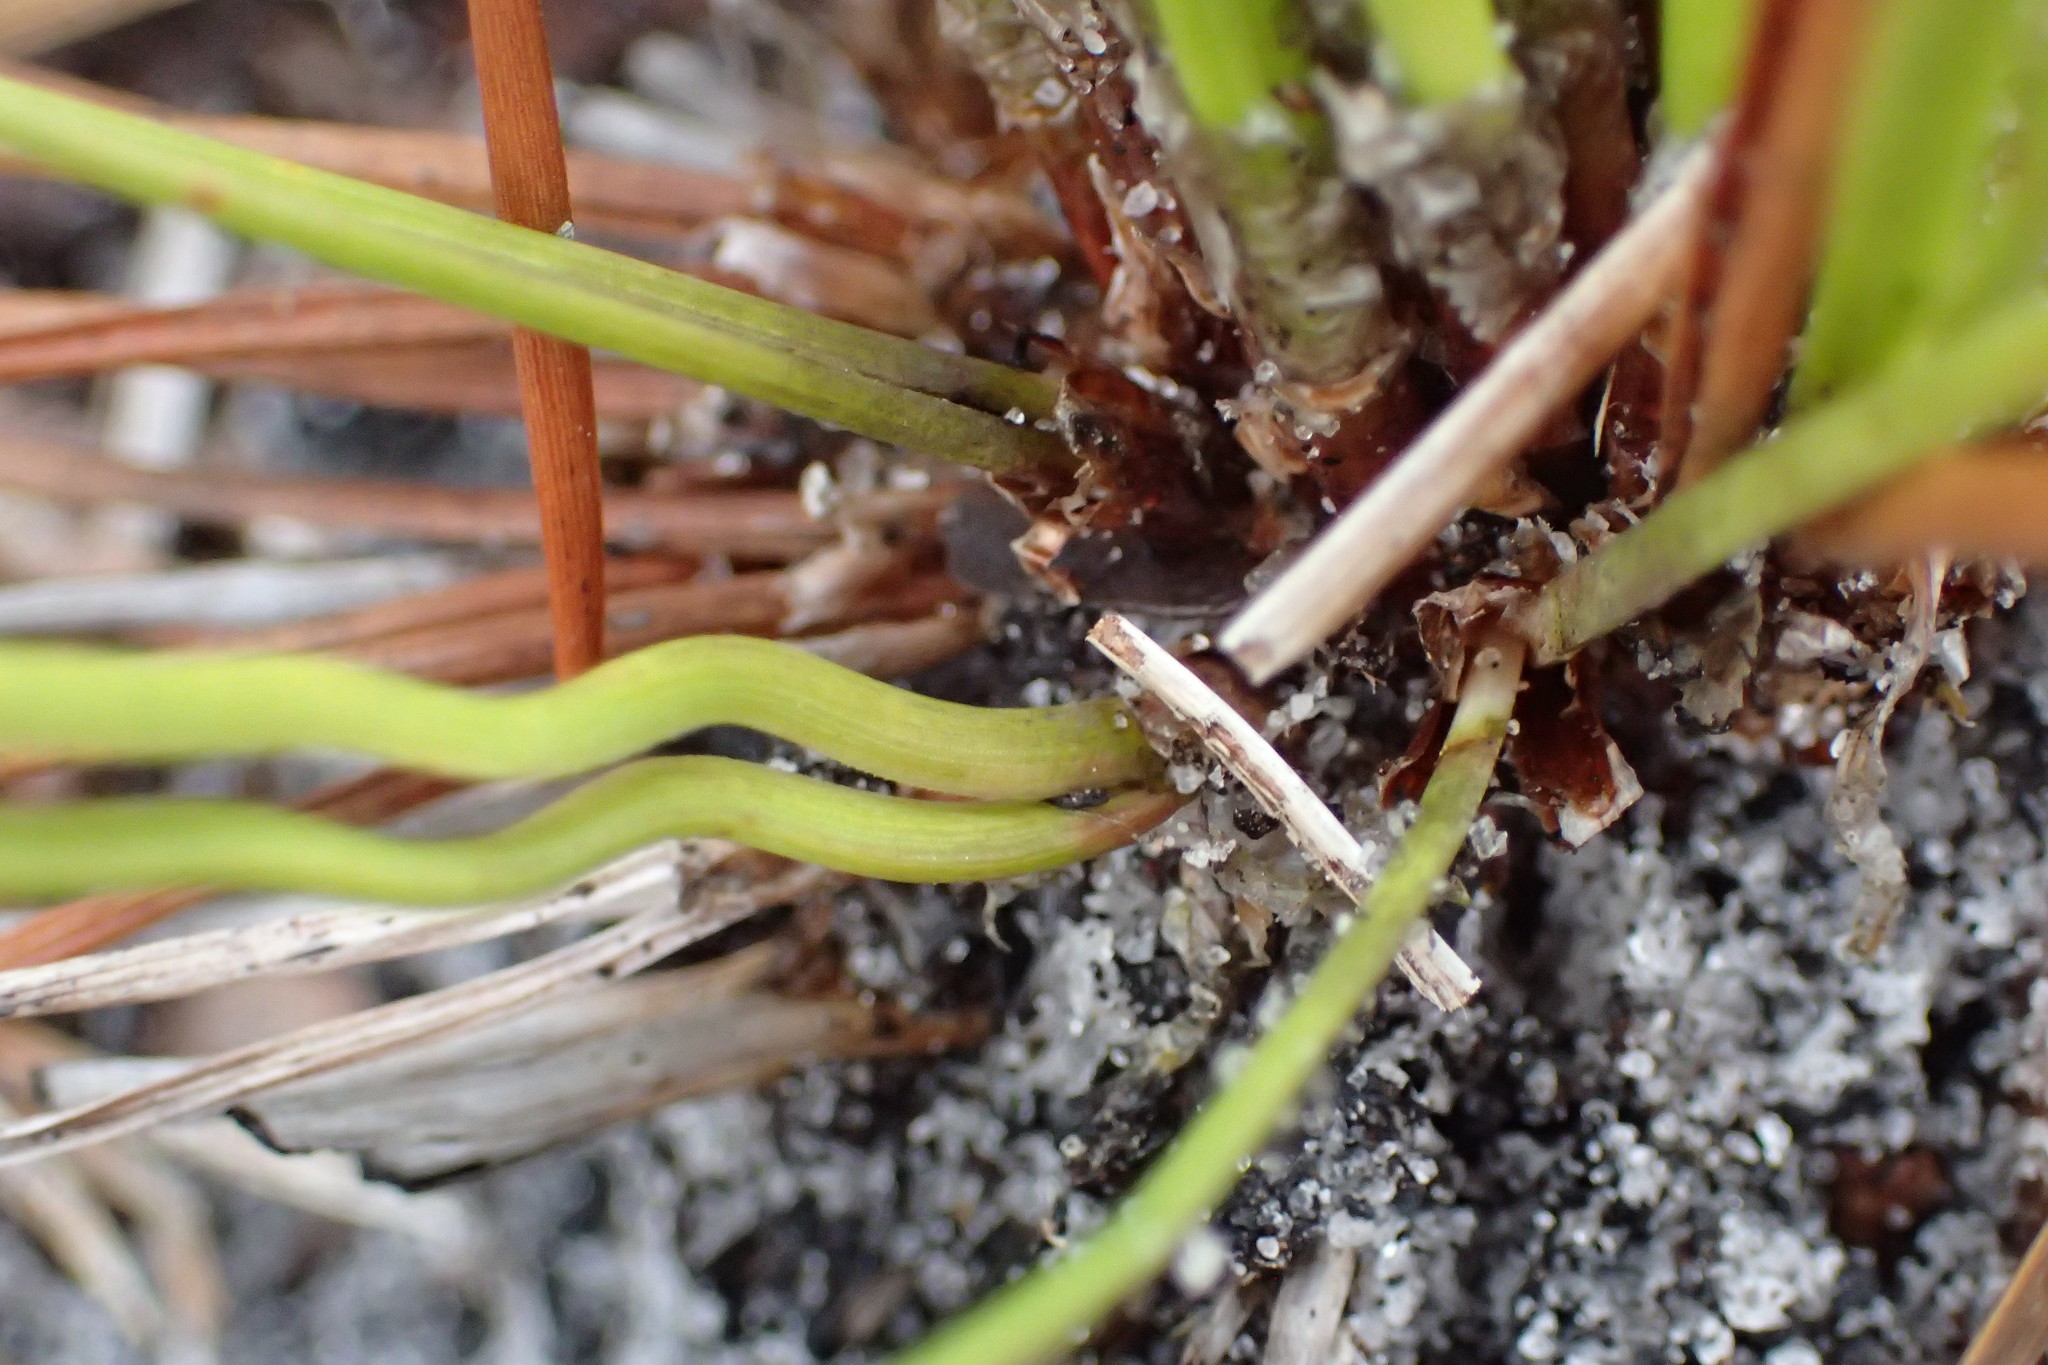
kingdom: Plantae
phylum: Tracheophyta
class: Pinopsida
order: Pinales
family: Pinaceae
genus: Pinus
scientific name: Pinus palustris
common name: Longleaf pine
